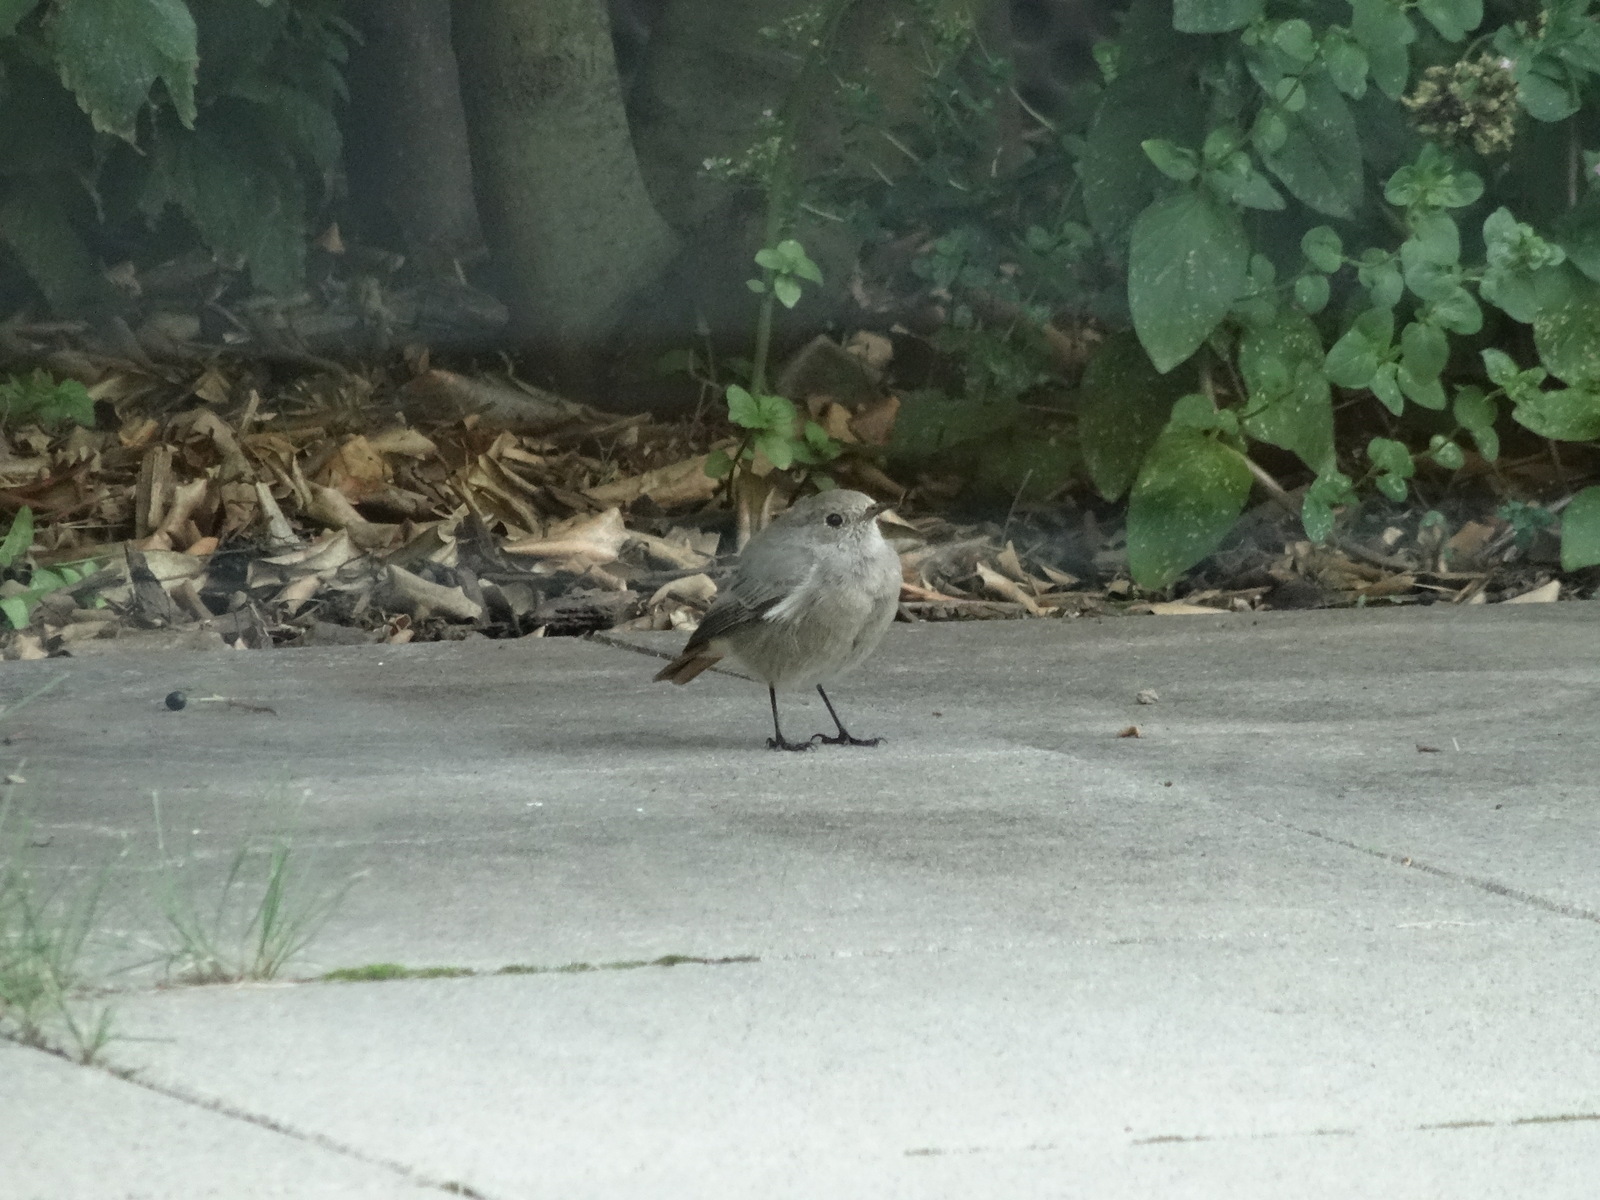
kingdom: Animalia
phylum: Chordata
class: Aves
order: Passeriformes
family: Muscicapidae
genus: Phoenicurus
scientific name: Phoenicurus ochruros
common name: Black redstart
